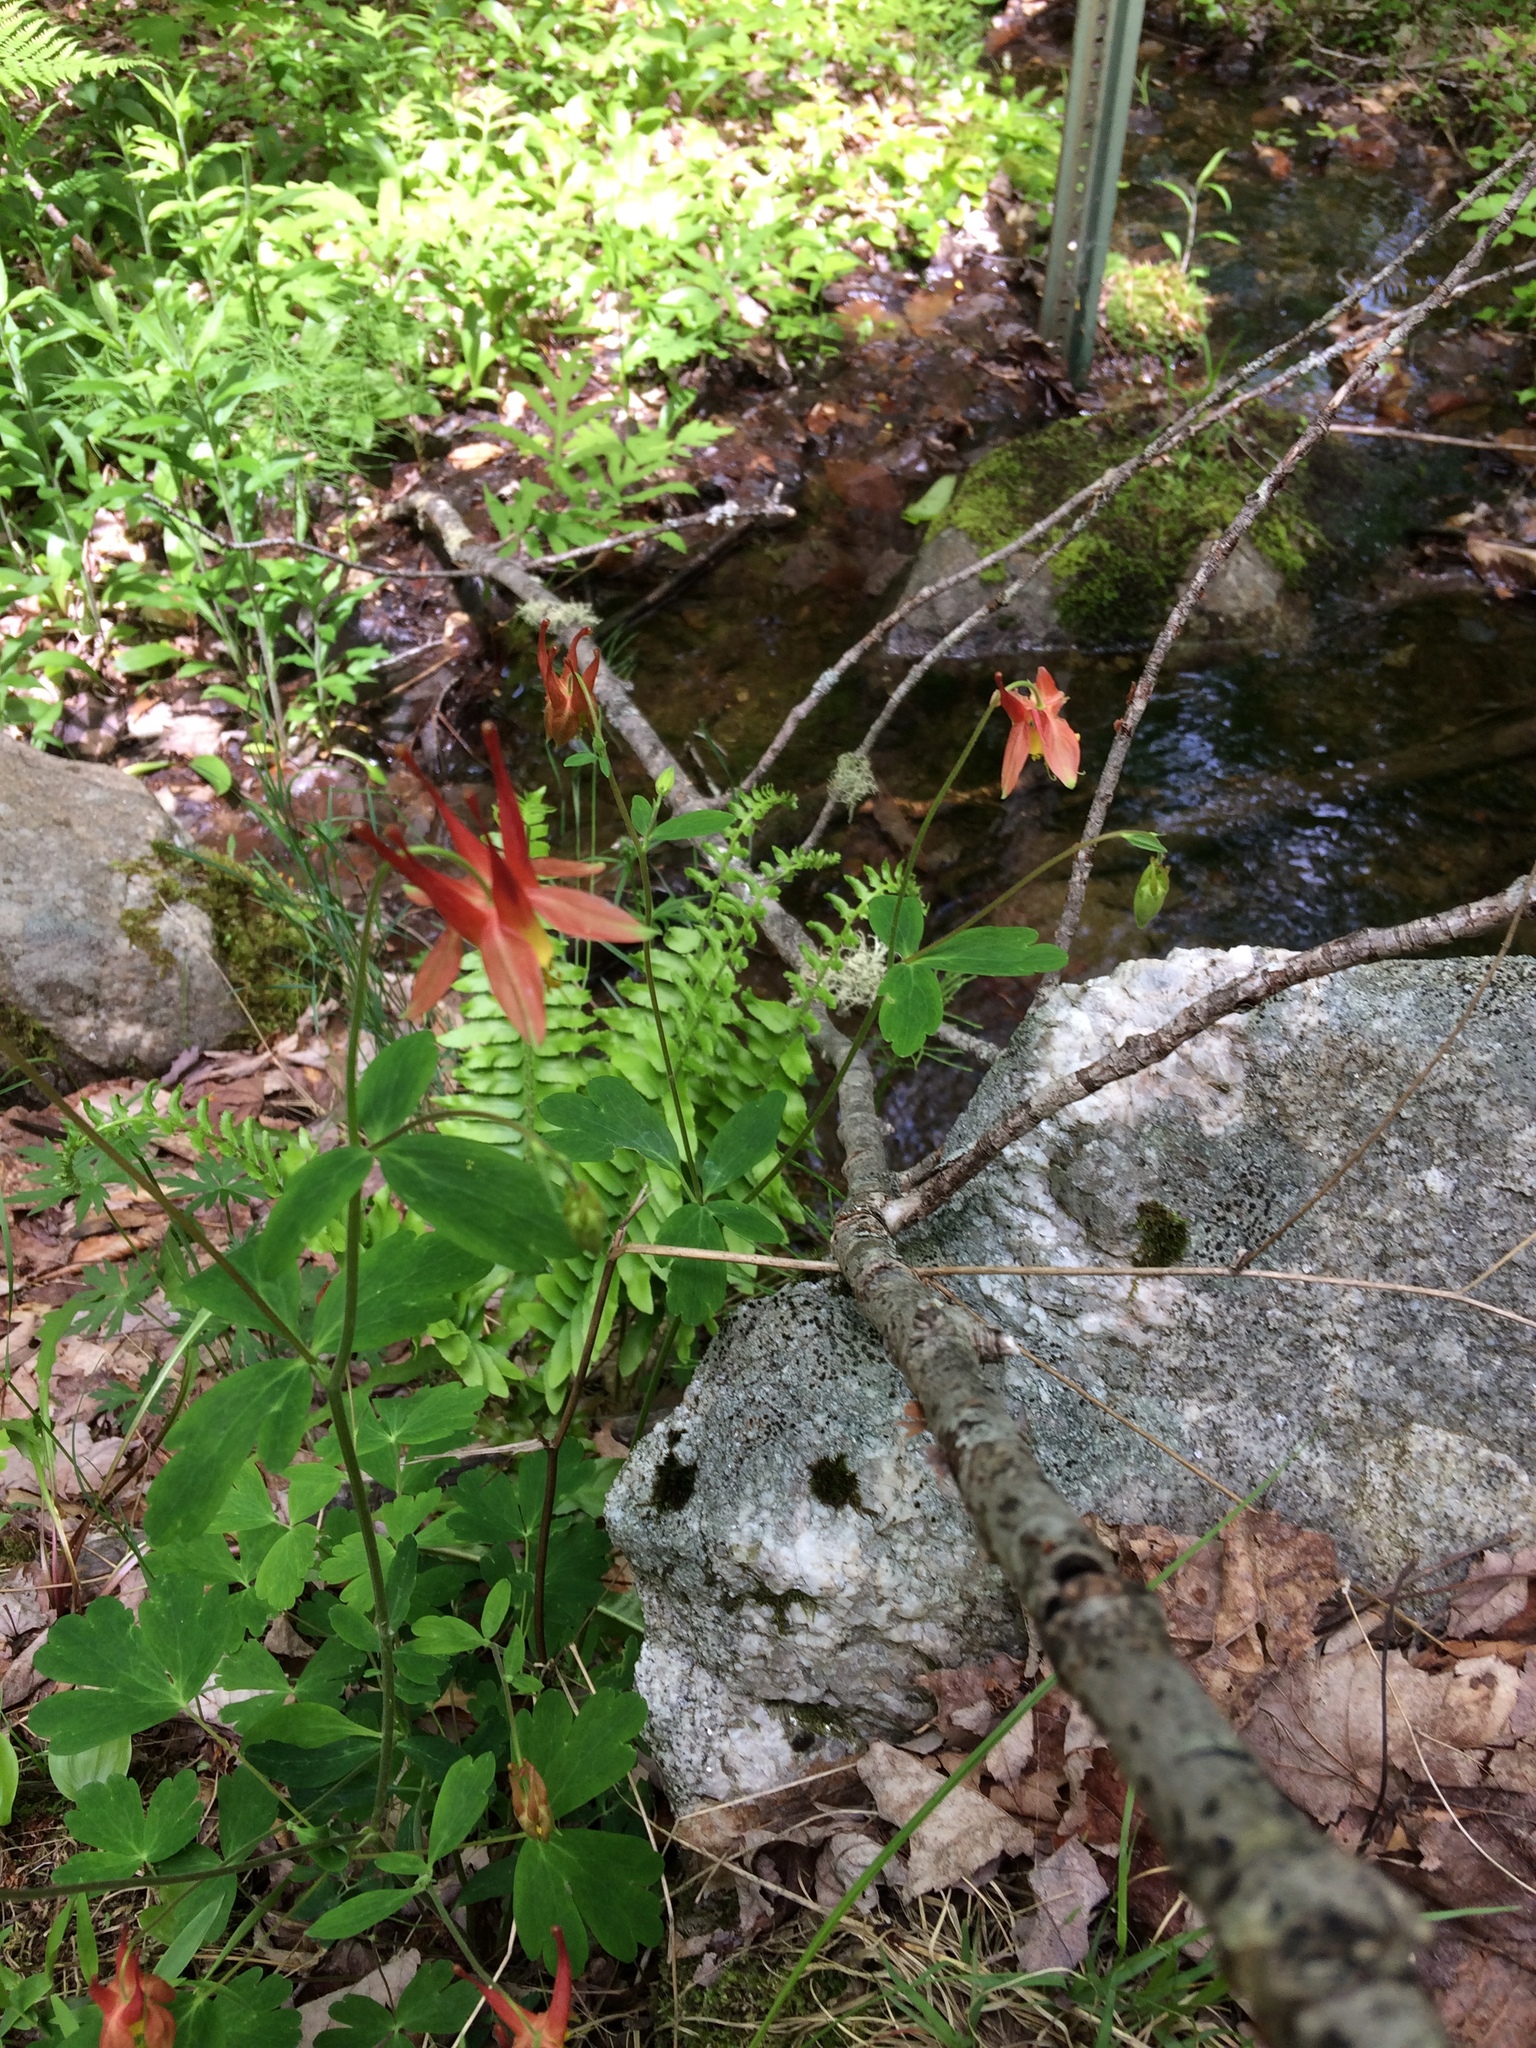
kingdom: Plantae
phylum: Tracheophyta
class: Magnoliopsida
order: Ranunculales
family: Ranunculaceae
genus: Aquilegia
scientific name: Aquilegia canadensis
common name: American columbine
